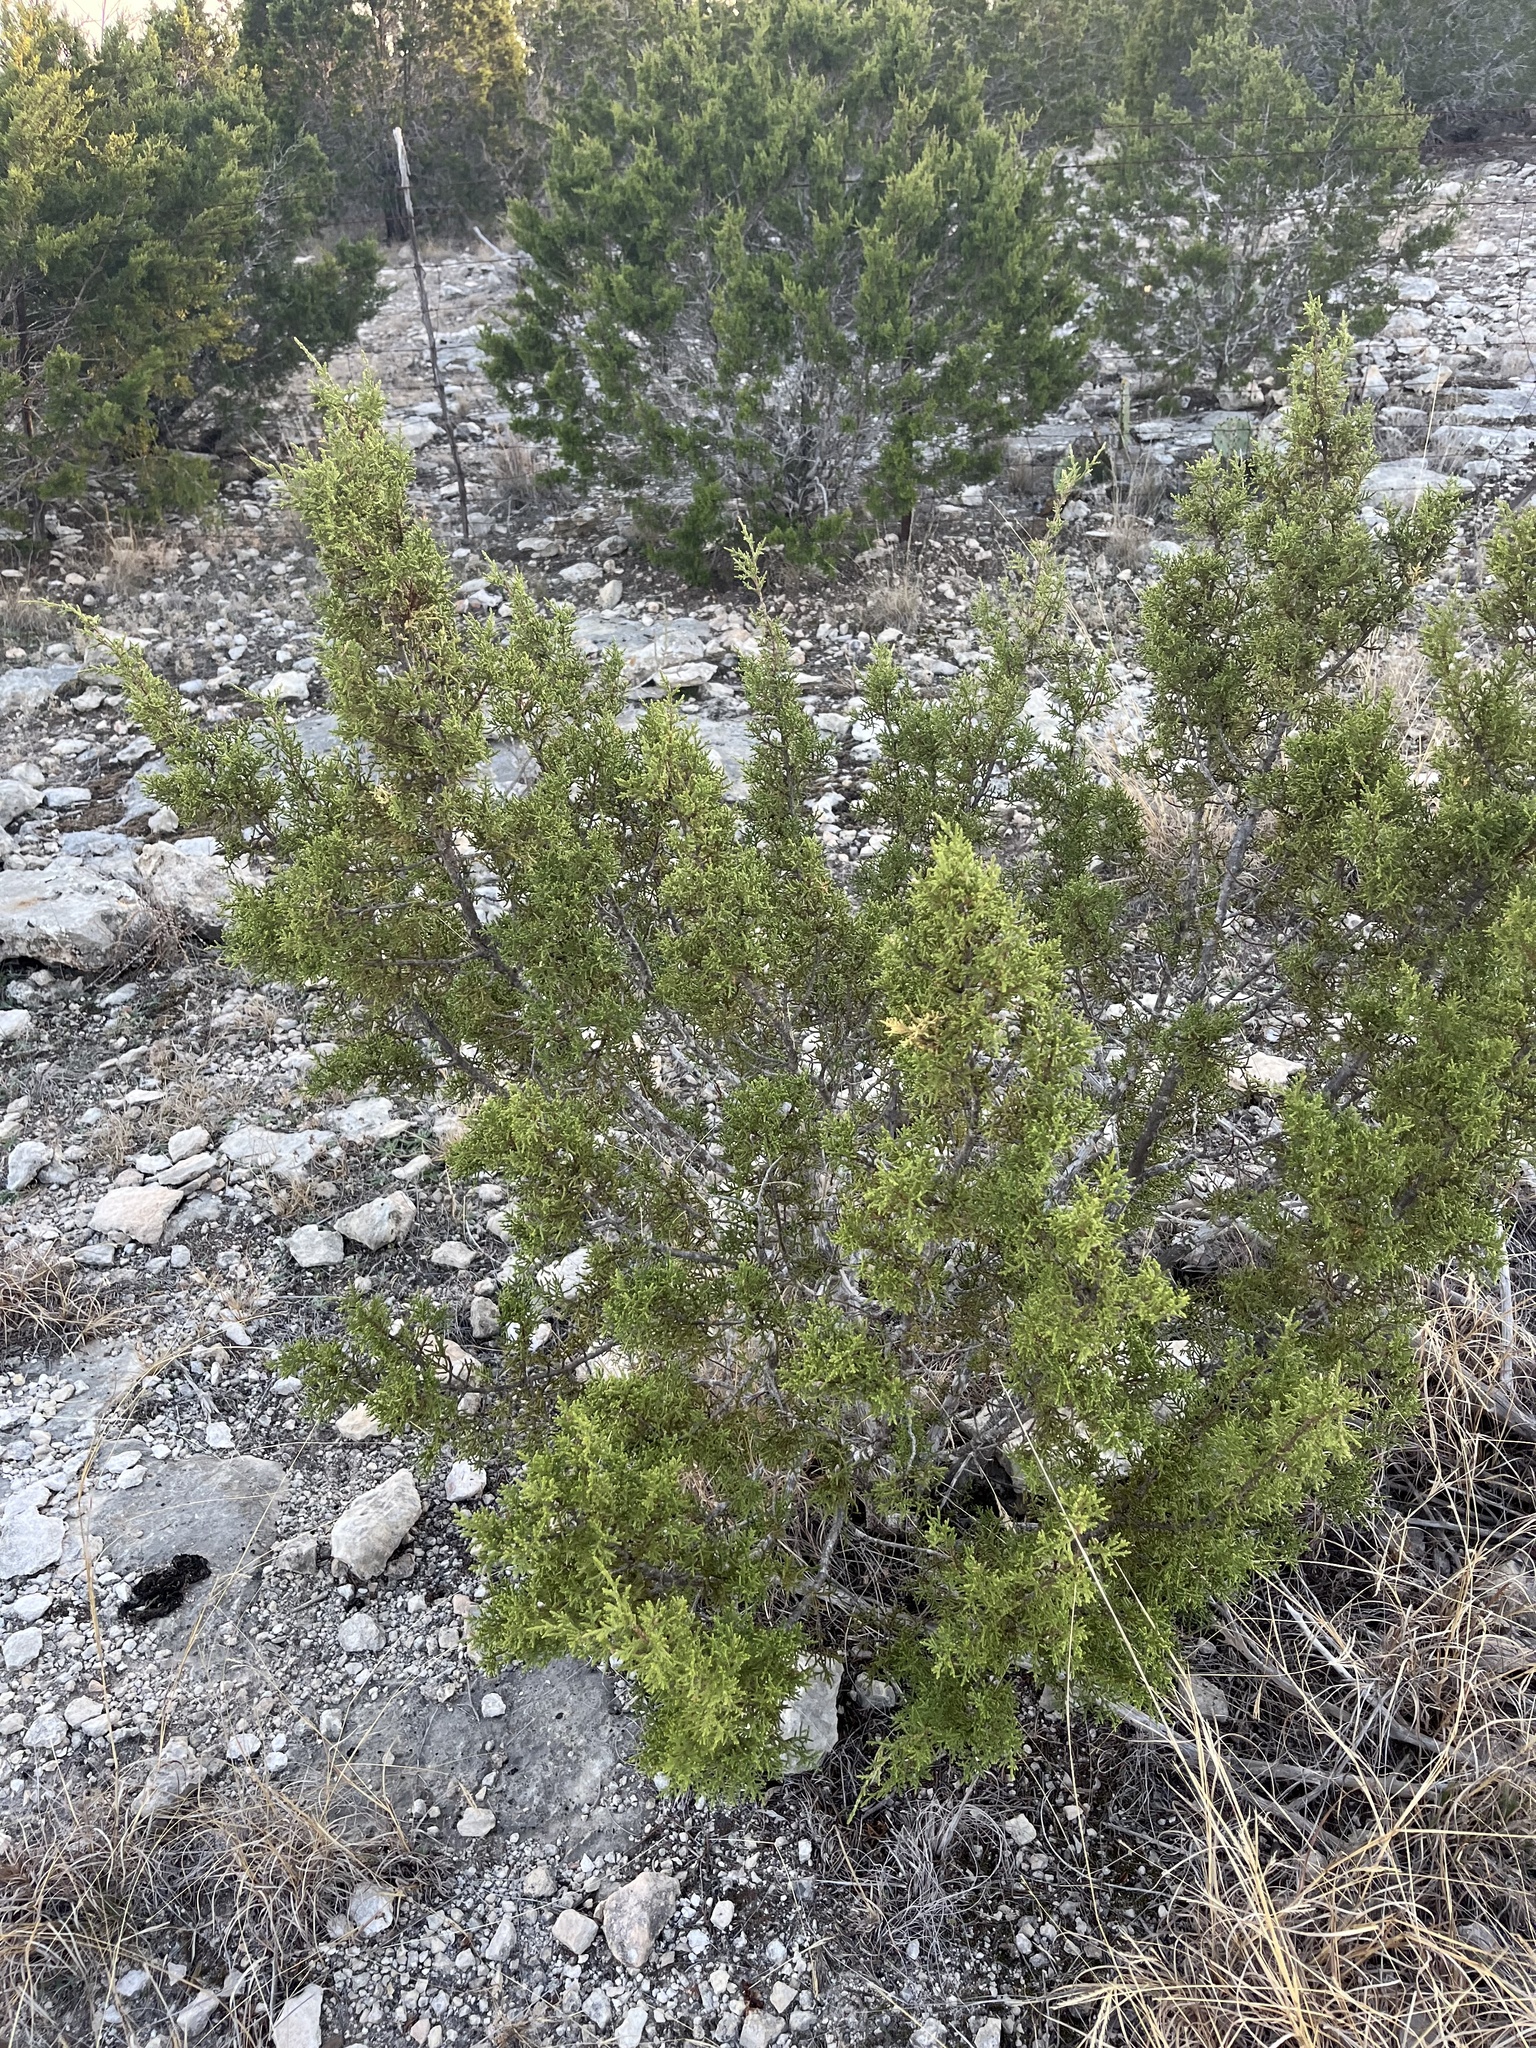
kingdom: Plantae
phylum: Tracheophyta
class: Pinopsida
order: Pinales
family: Cupressaceae
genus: Juniperus
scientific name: Juniperus ashei
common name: Mexican juniper
